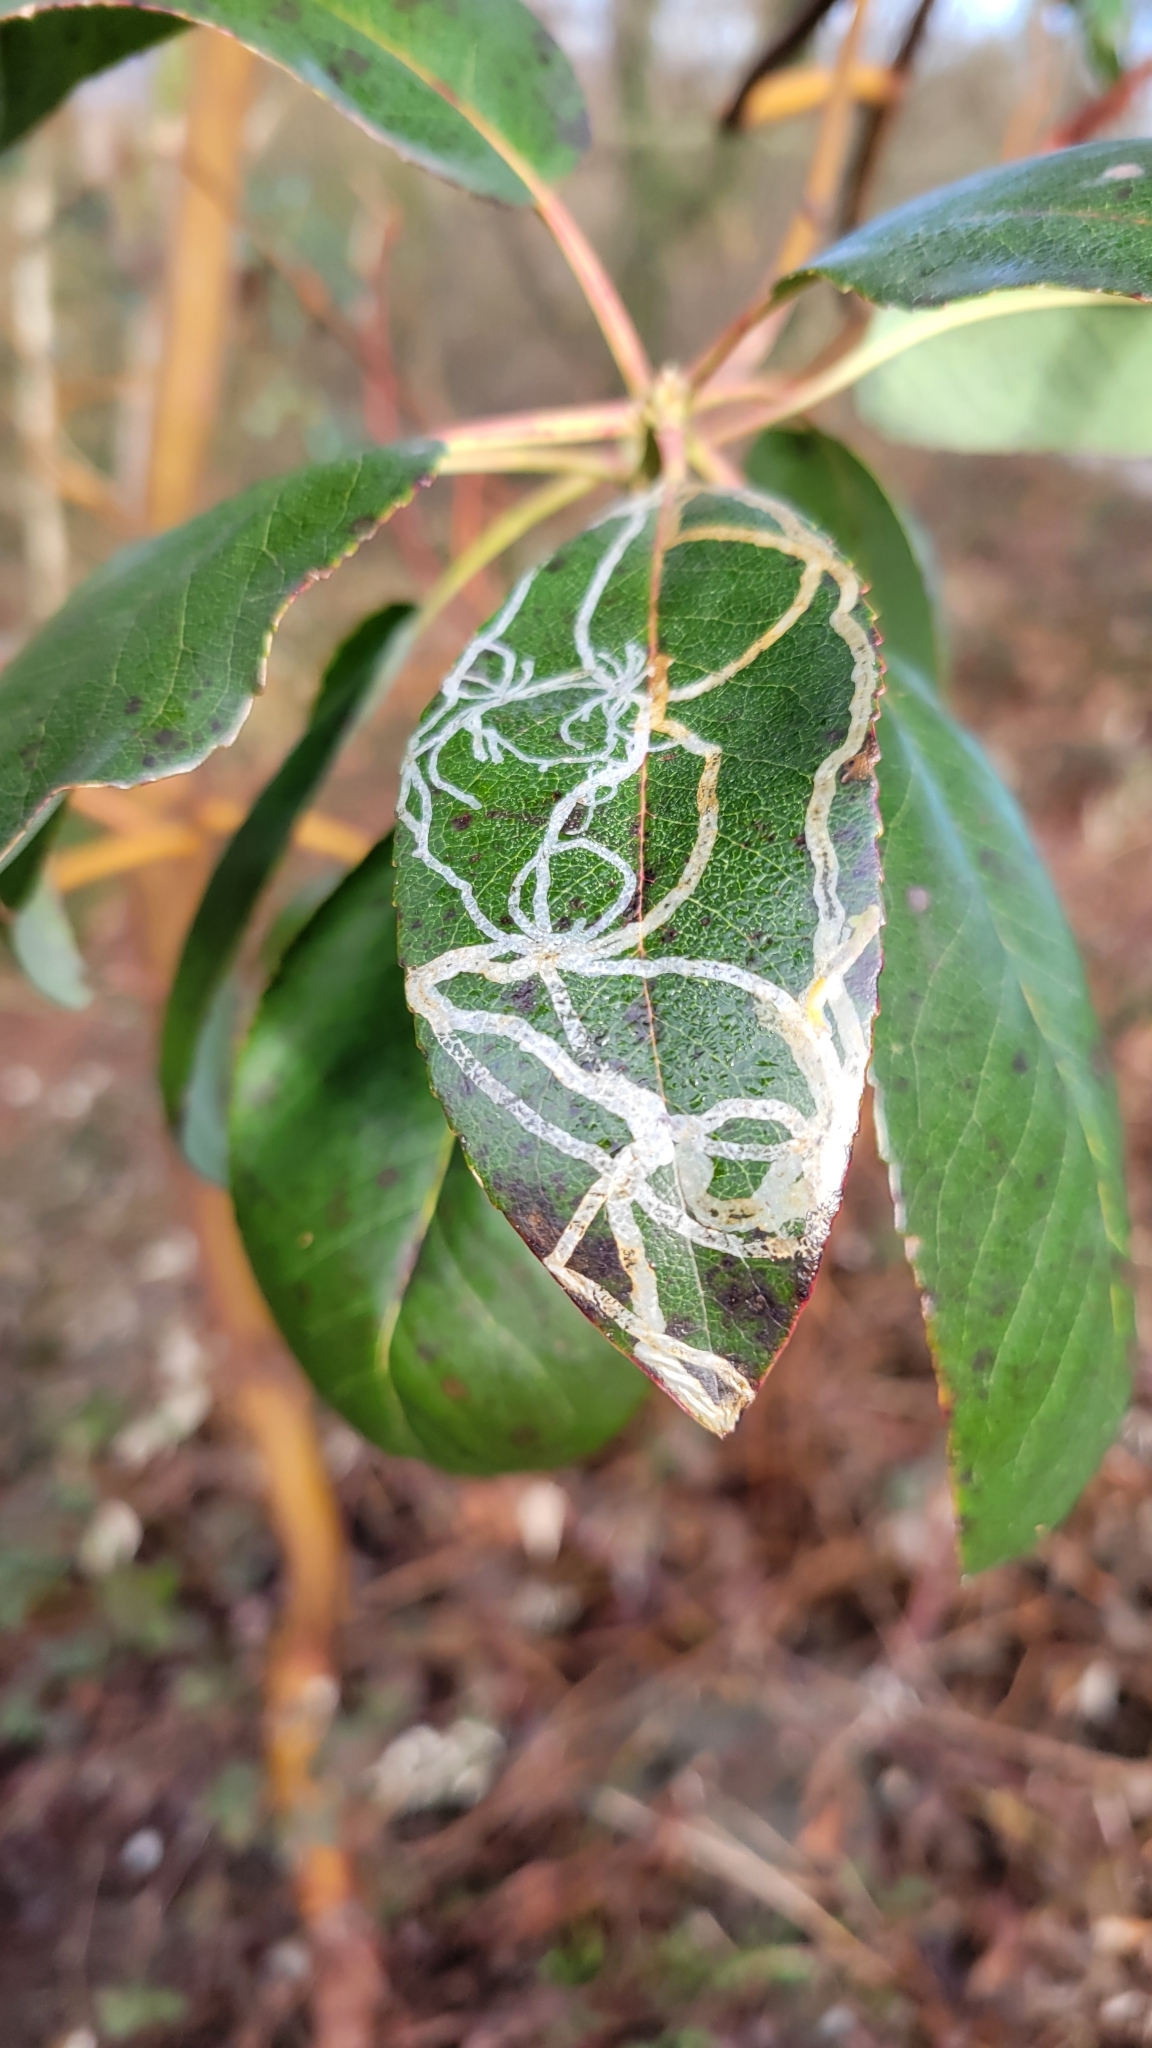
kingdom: Animalia
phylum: Arthropoda
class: Insecta
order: Lepidoptera
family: Gracillariidae
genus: Marmara
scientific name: Marmara arbutiella
